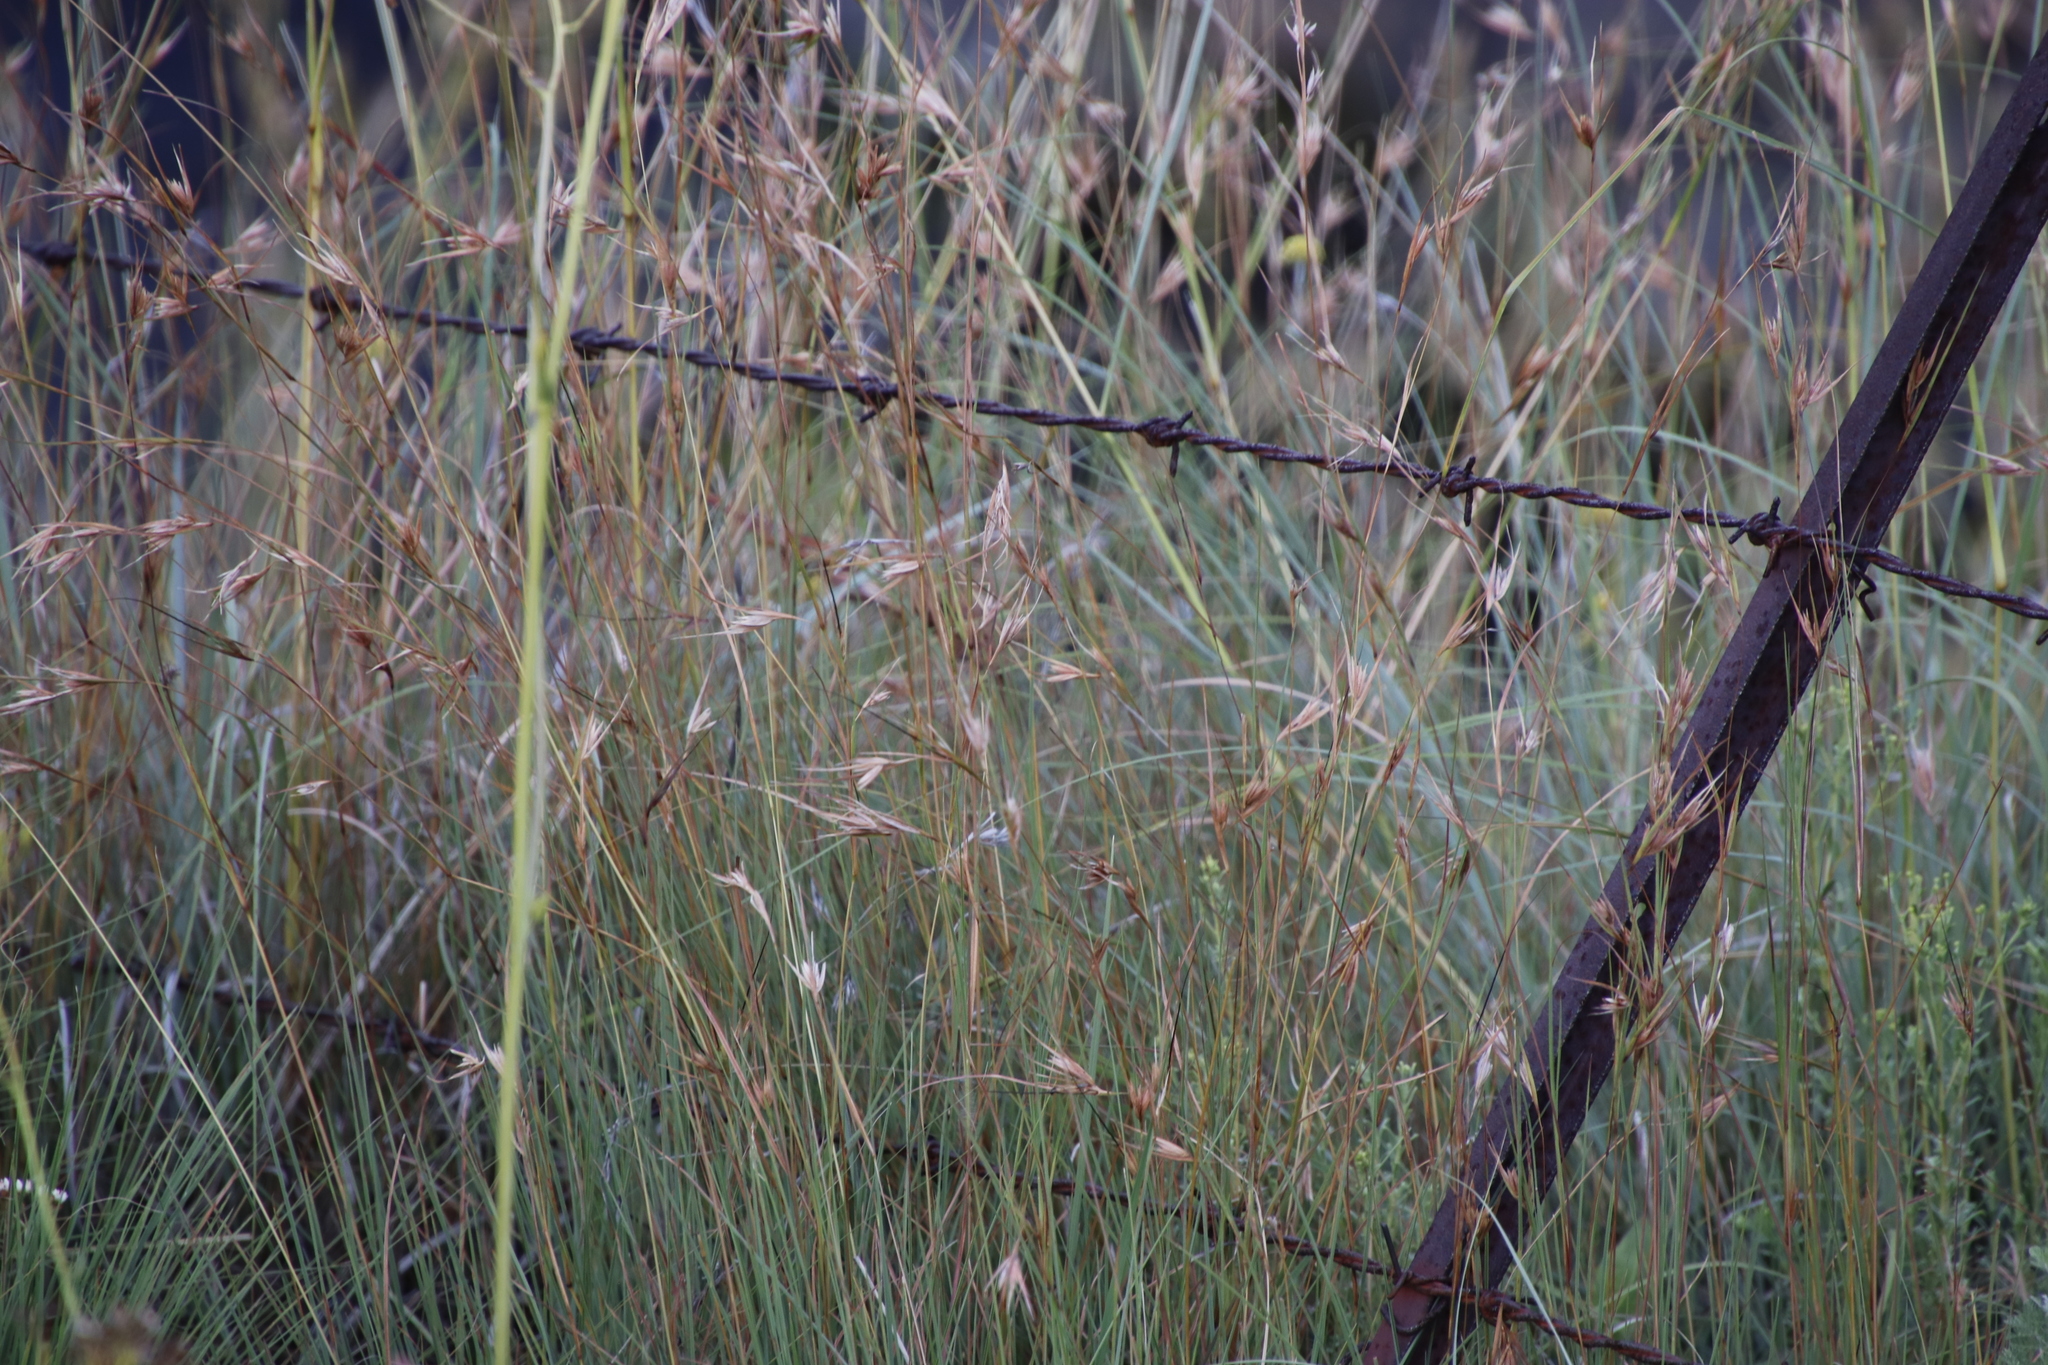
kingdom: Plantae
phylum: Tracheophyta
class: Liliopsida
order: Poales
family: Poaceae
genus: Themeda
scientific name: Themeda triandra
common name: Kangaroo grass
